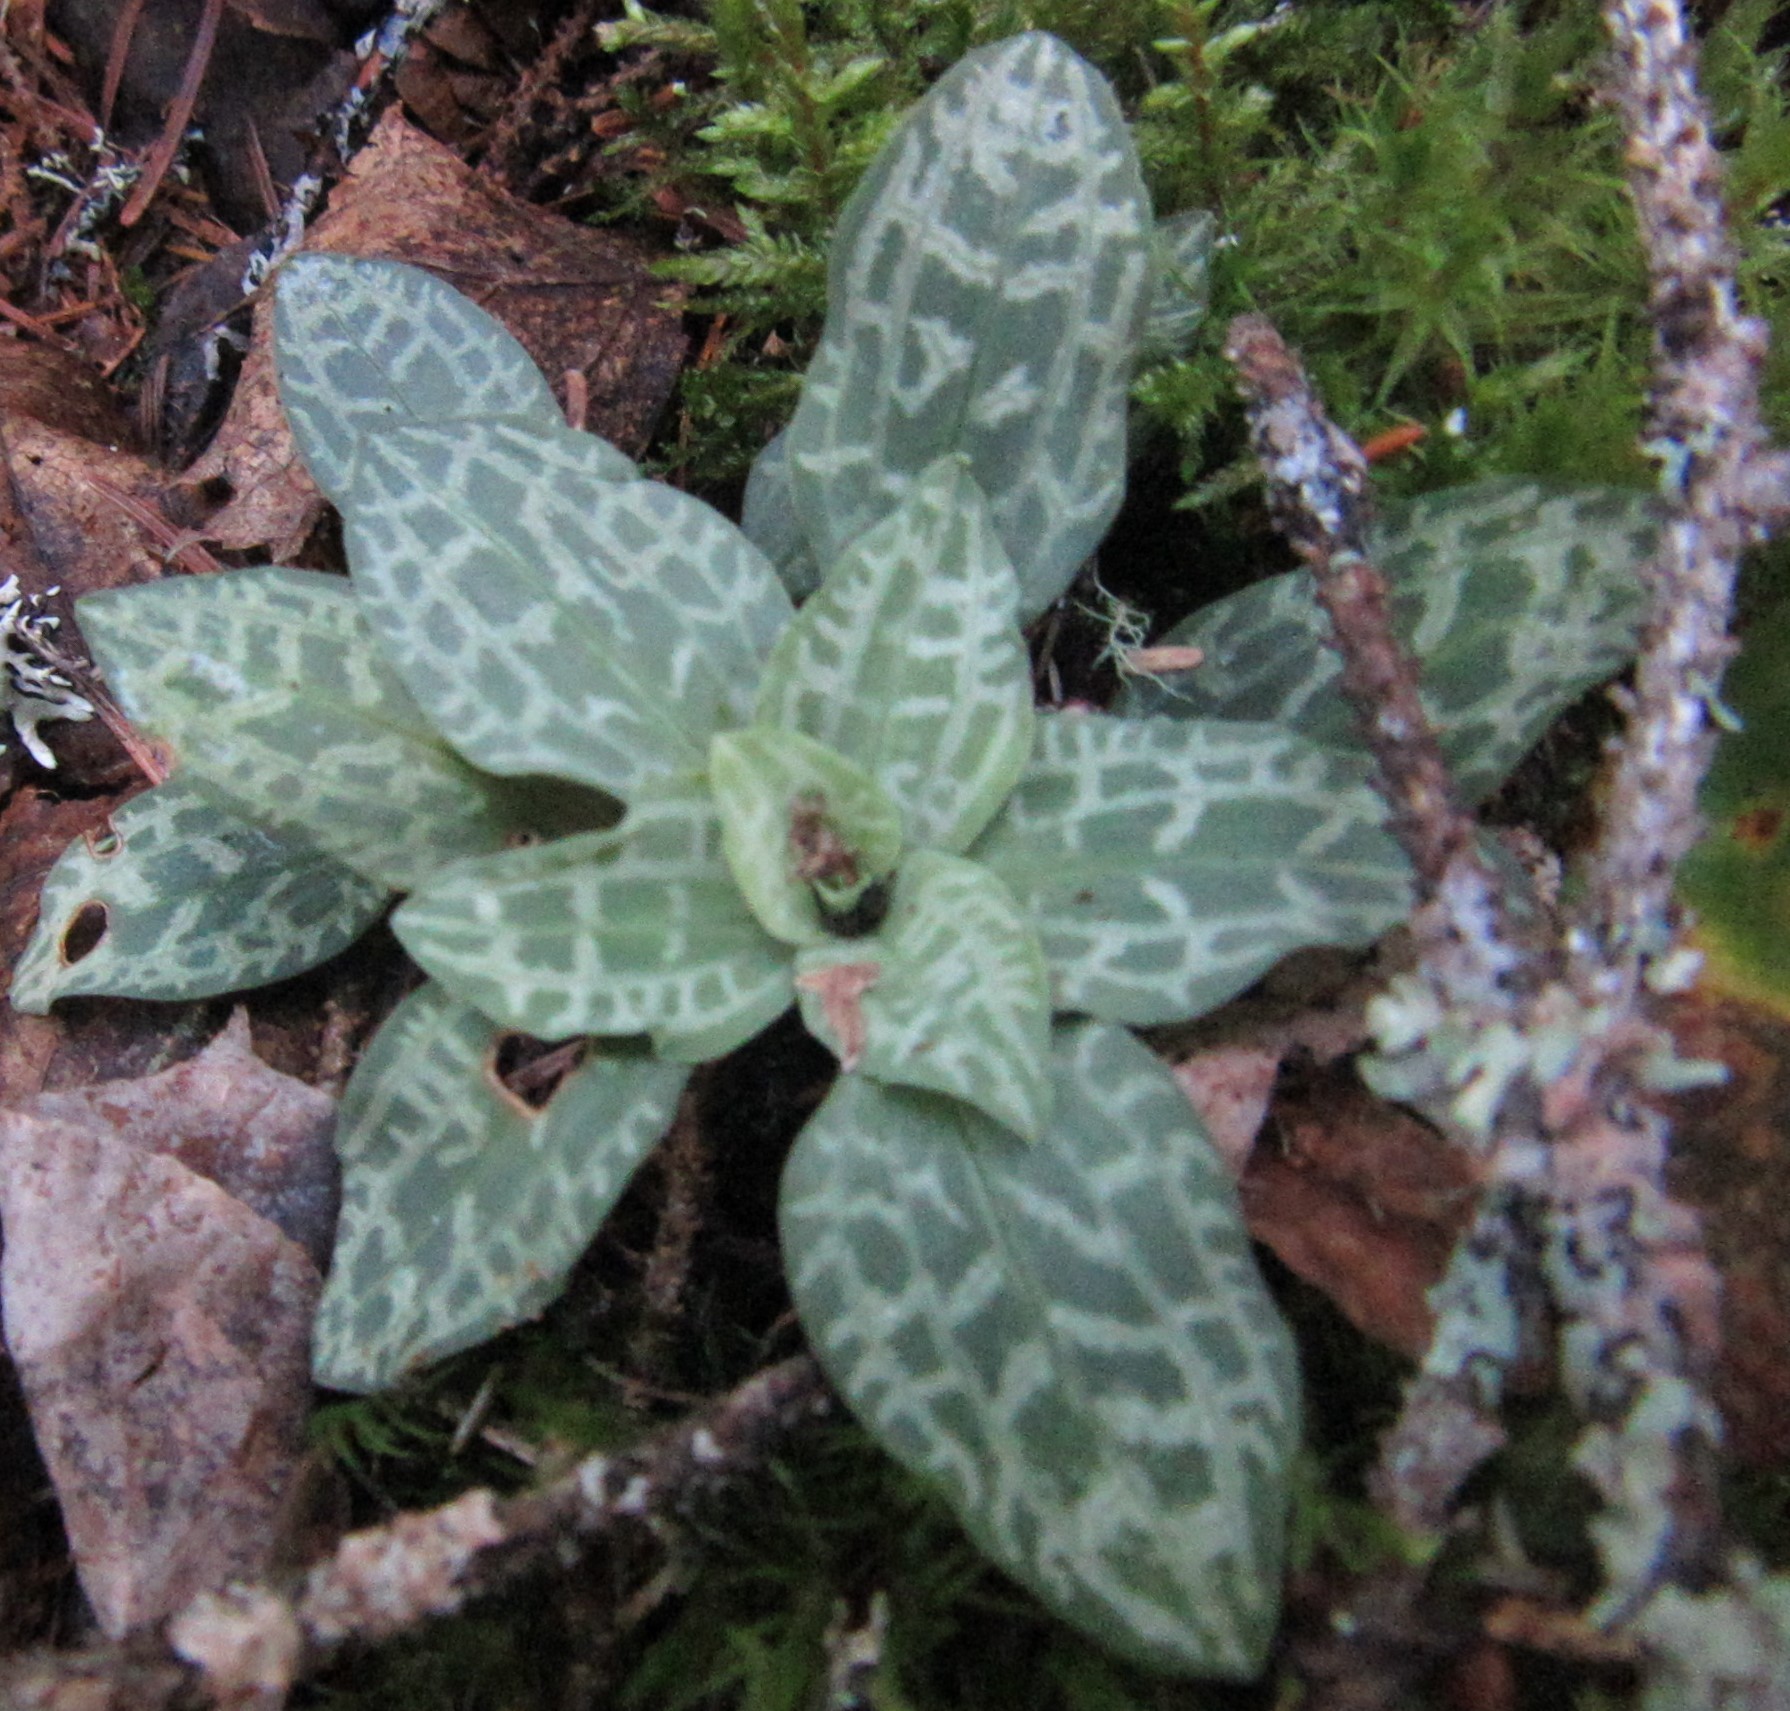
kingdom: Plantae
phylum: Tracheophyta
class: Liliopsida
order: Asparagales
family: Orchidaceae
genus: Goodyera
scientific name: Goodyera tesselata
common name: Checkered rattlesnake-plantain
